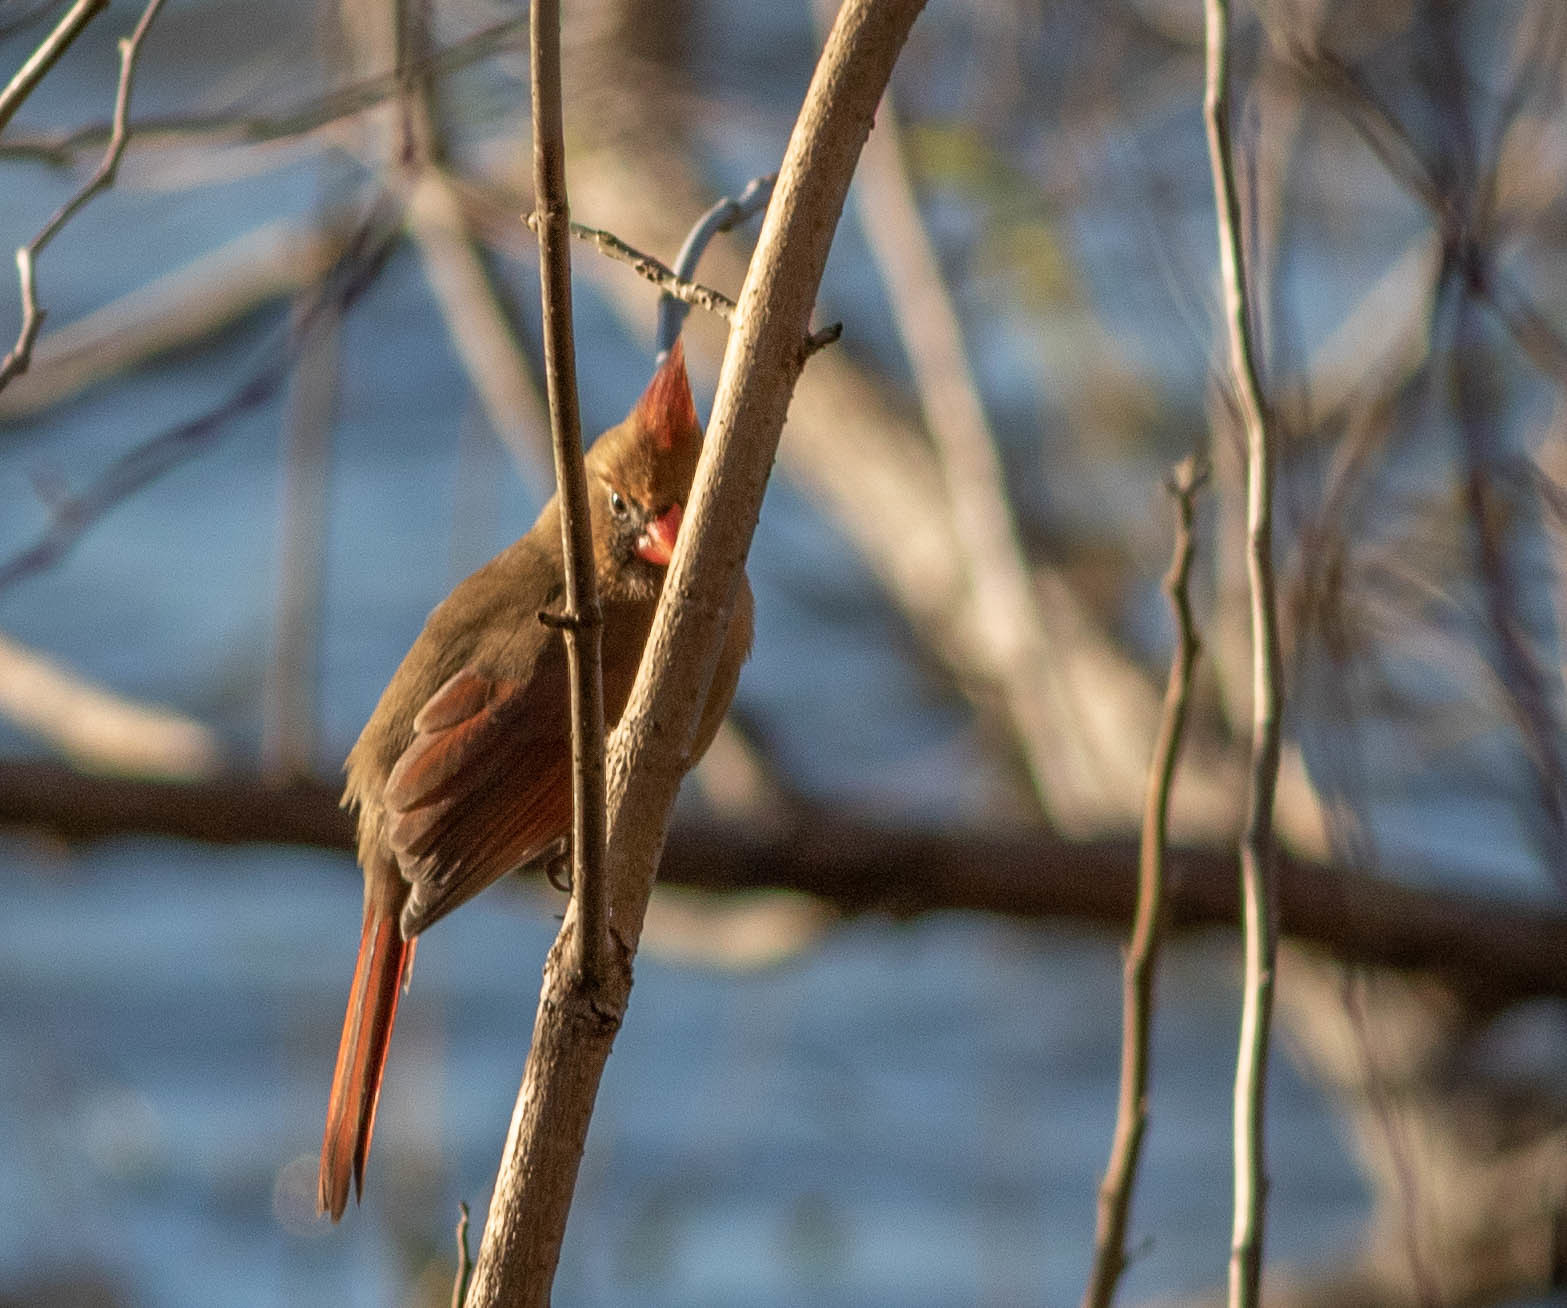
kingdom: Animalia
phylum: Chordata
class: Aves
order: Passeriformes
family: Cardinalidae
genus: Cardinalis
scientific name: Cardinalis cardinalis
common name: Northern cardinal
